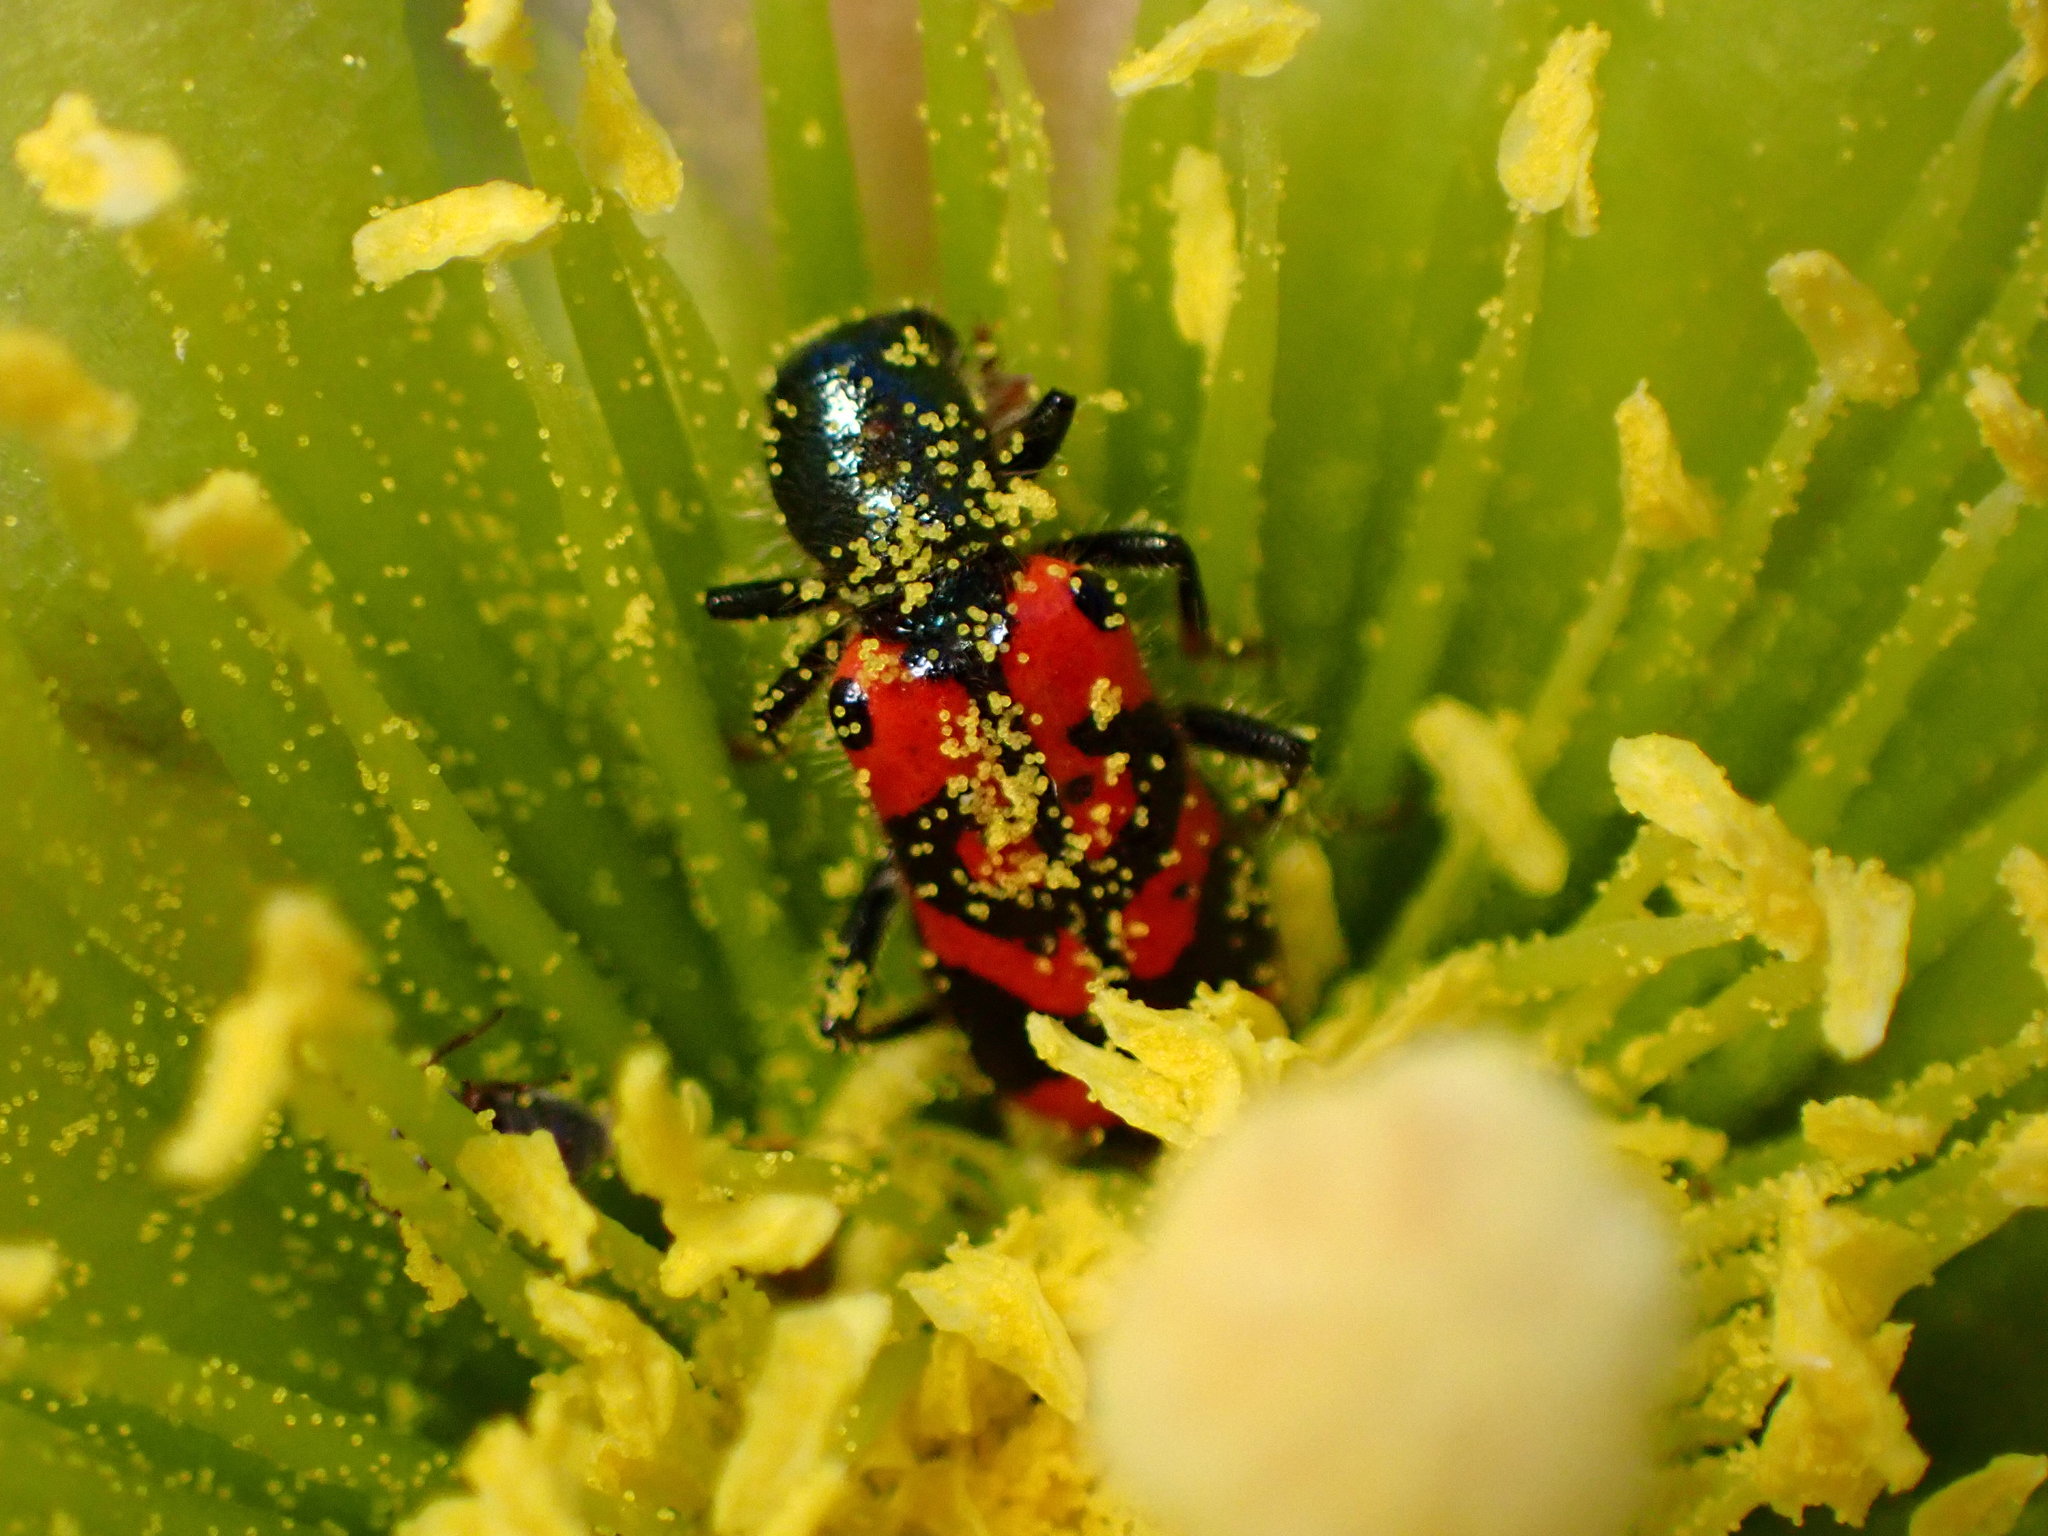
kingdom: Animalia
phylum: Arthropoda
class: Insecta
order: Coleoptera
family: Cleridae
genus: Trichodes
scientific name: Trichodes ornatus
